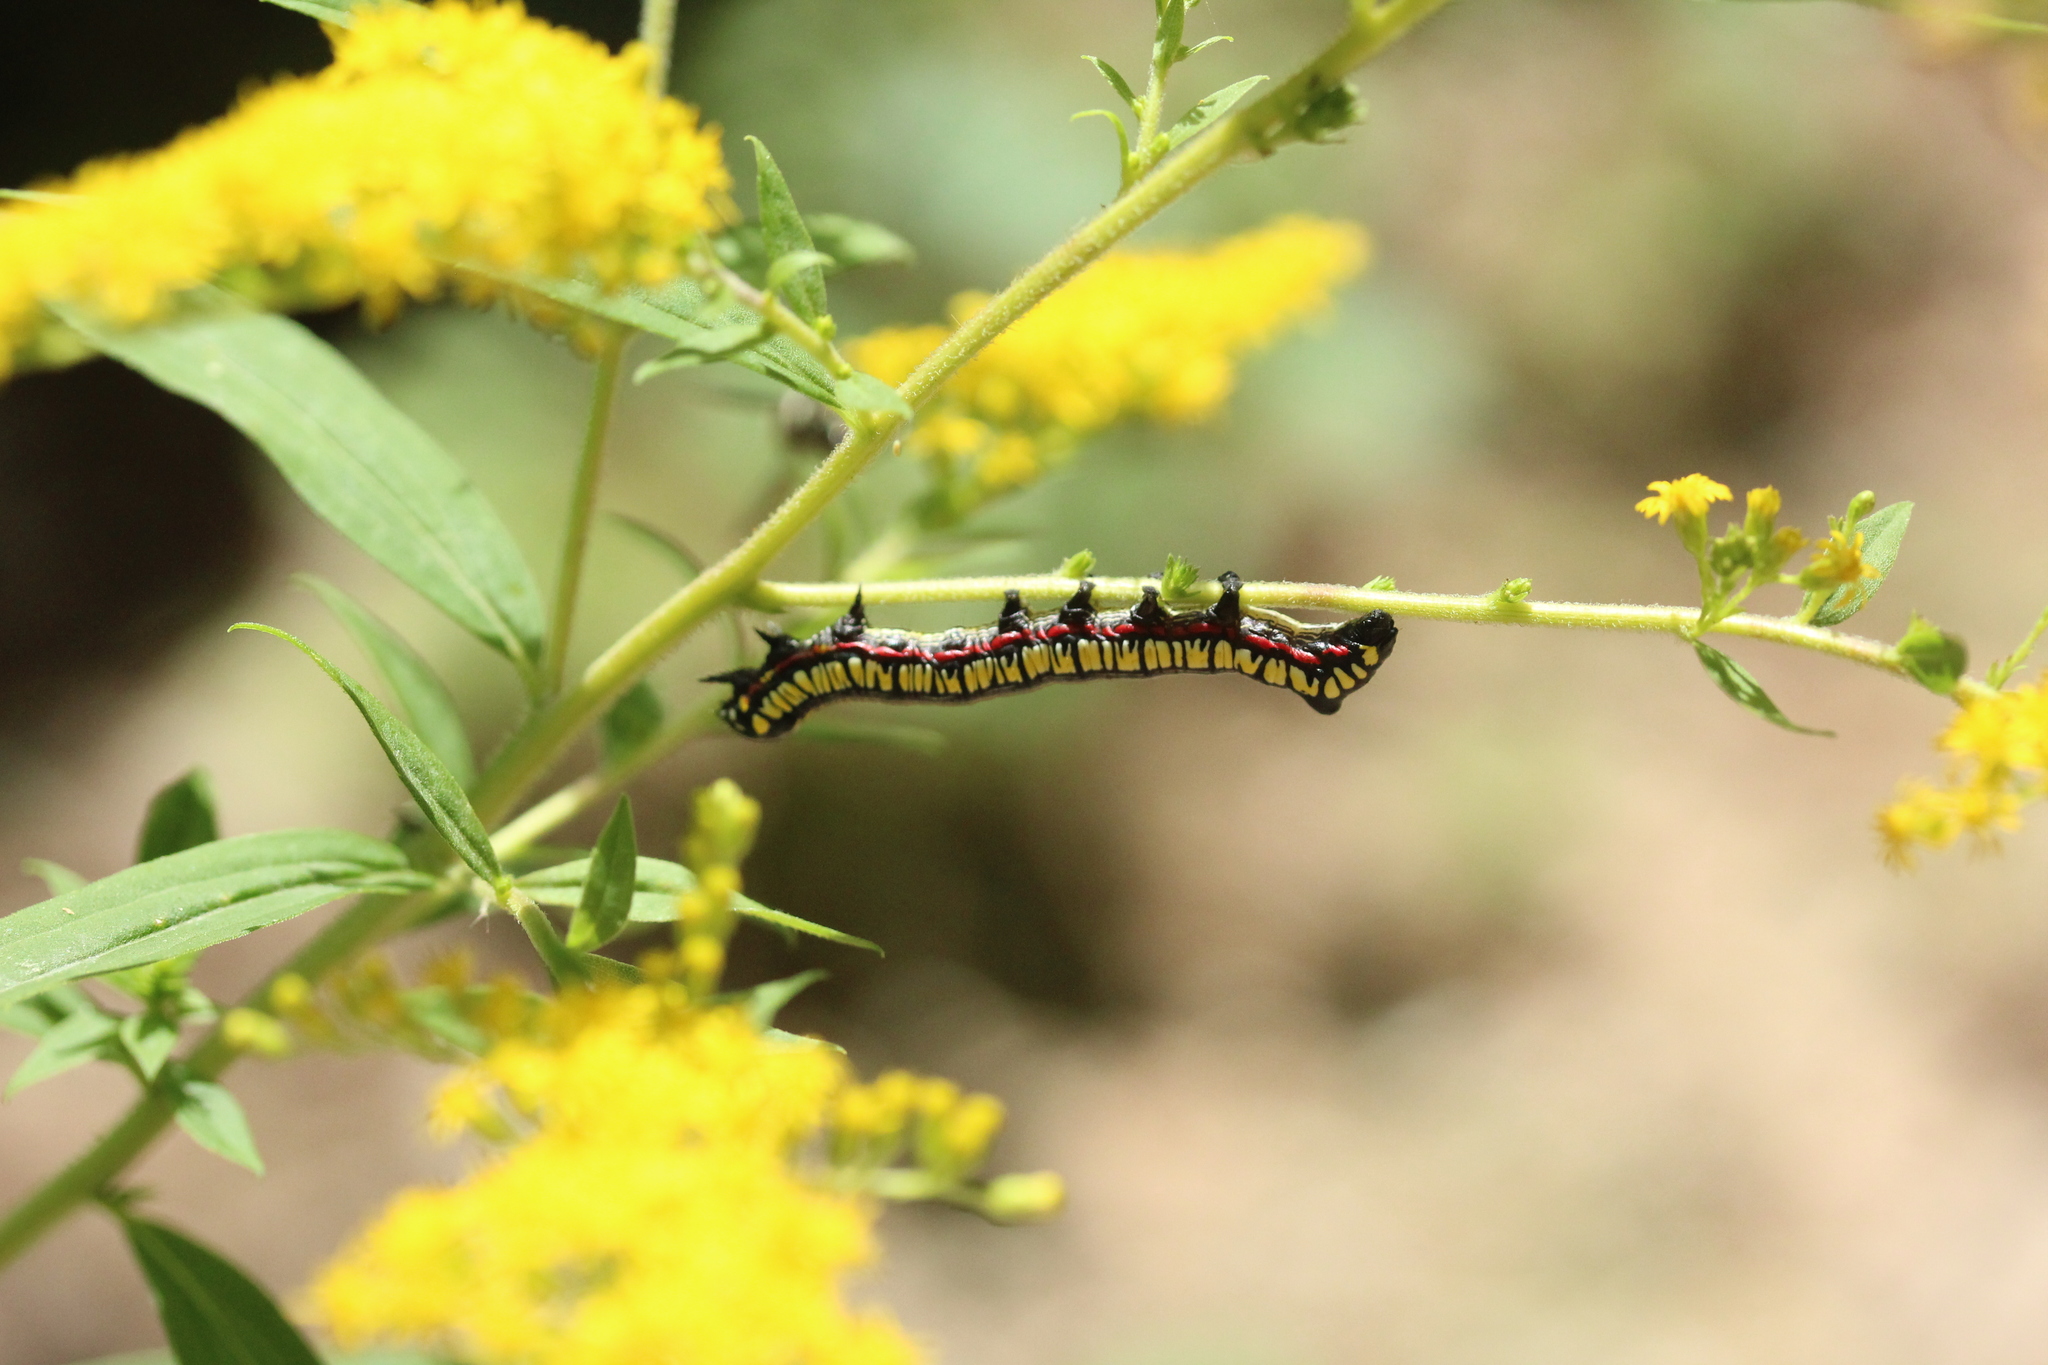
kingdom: Animalia
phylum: Arthropoda
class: Insecta
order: Lepidoptera
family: Noctuidae
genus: Cucullia
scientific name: Cucullia convexipennis
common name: Brown-hooded owlet
